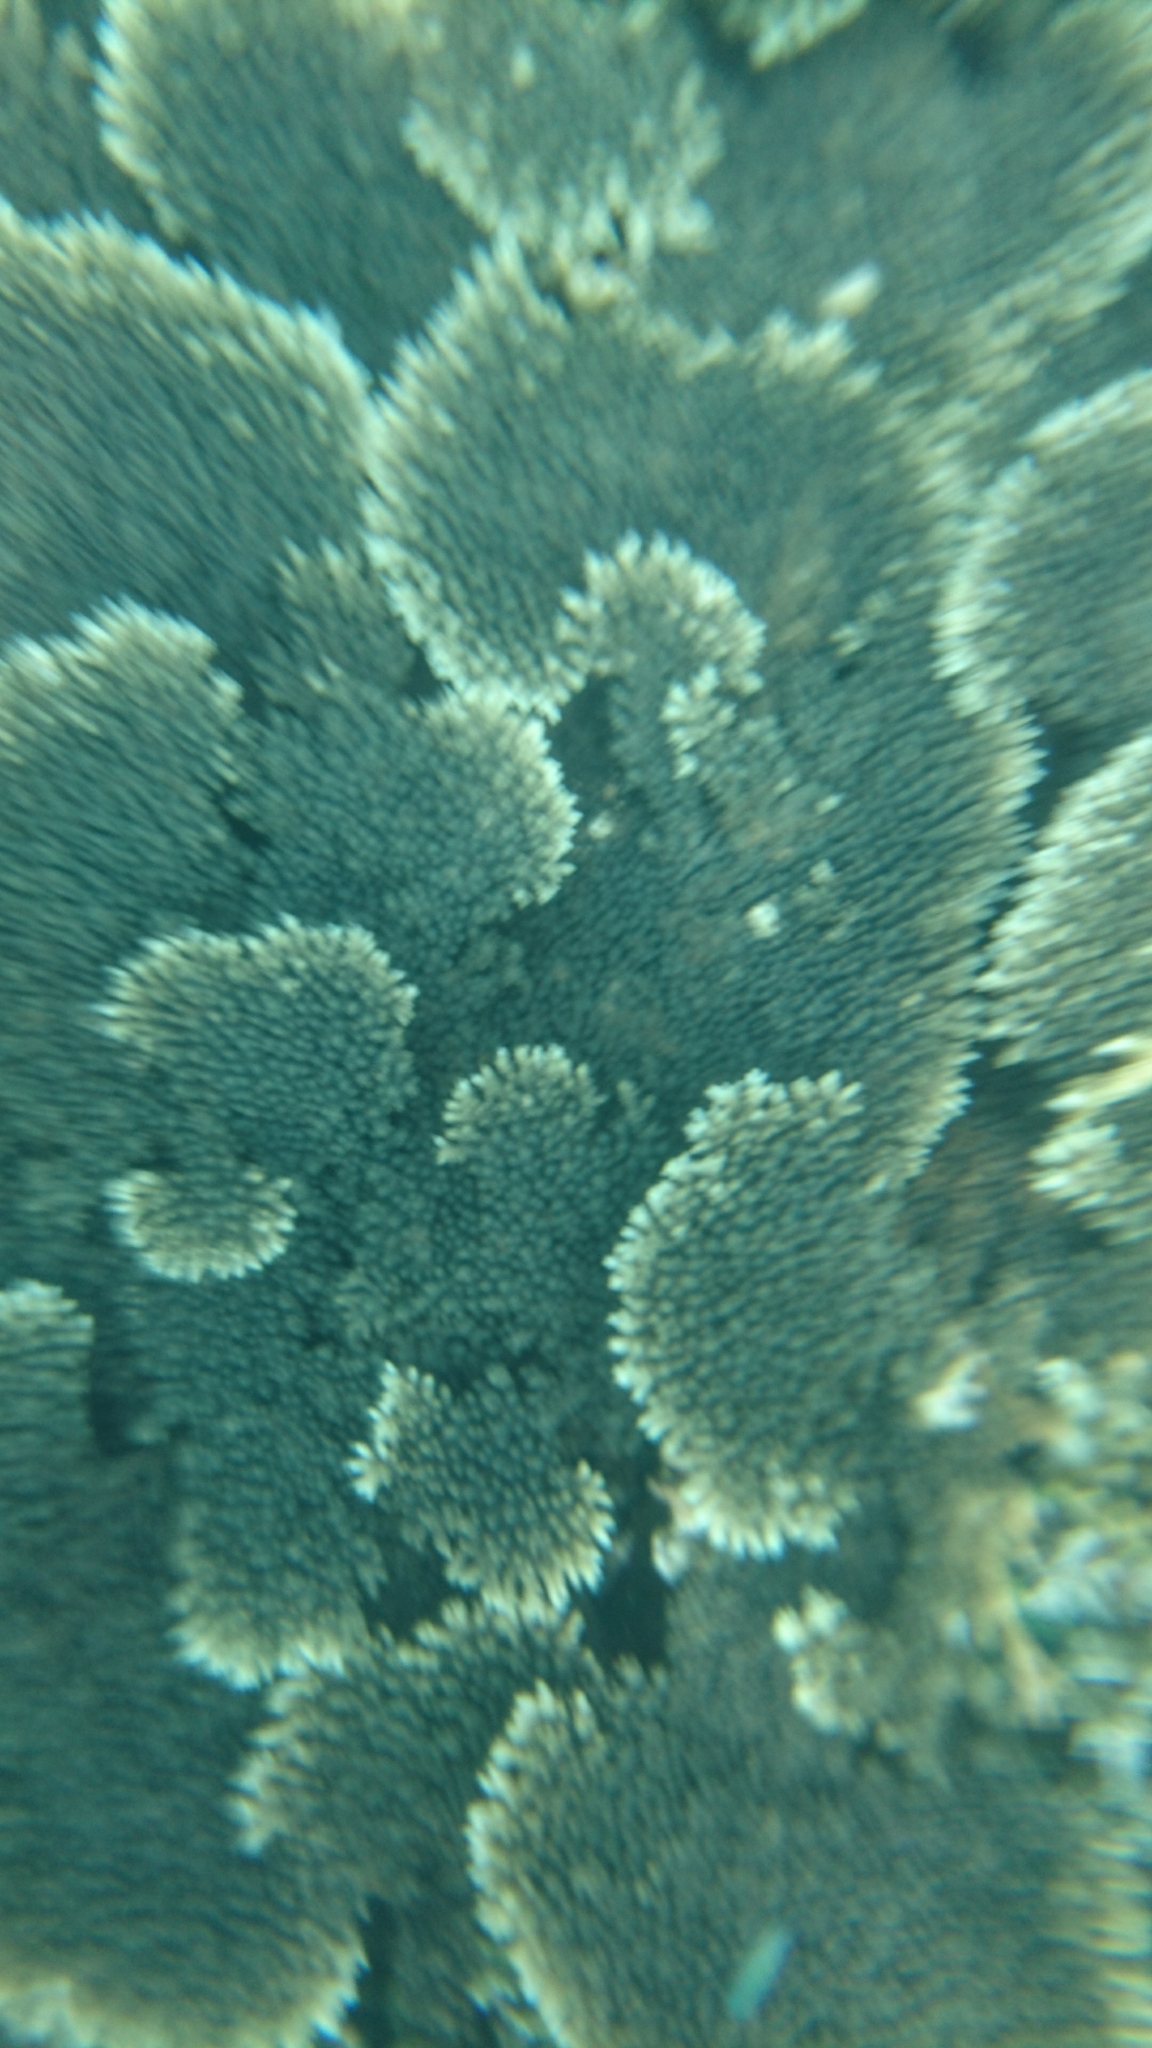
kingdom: Animalia
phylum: Cnidaria
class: Anthozoa
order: Scleractinia
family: Acroporidae
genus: Acropora
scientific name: Acropora
